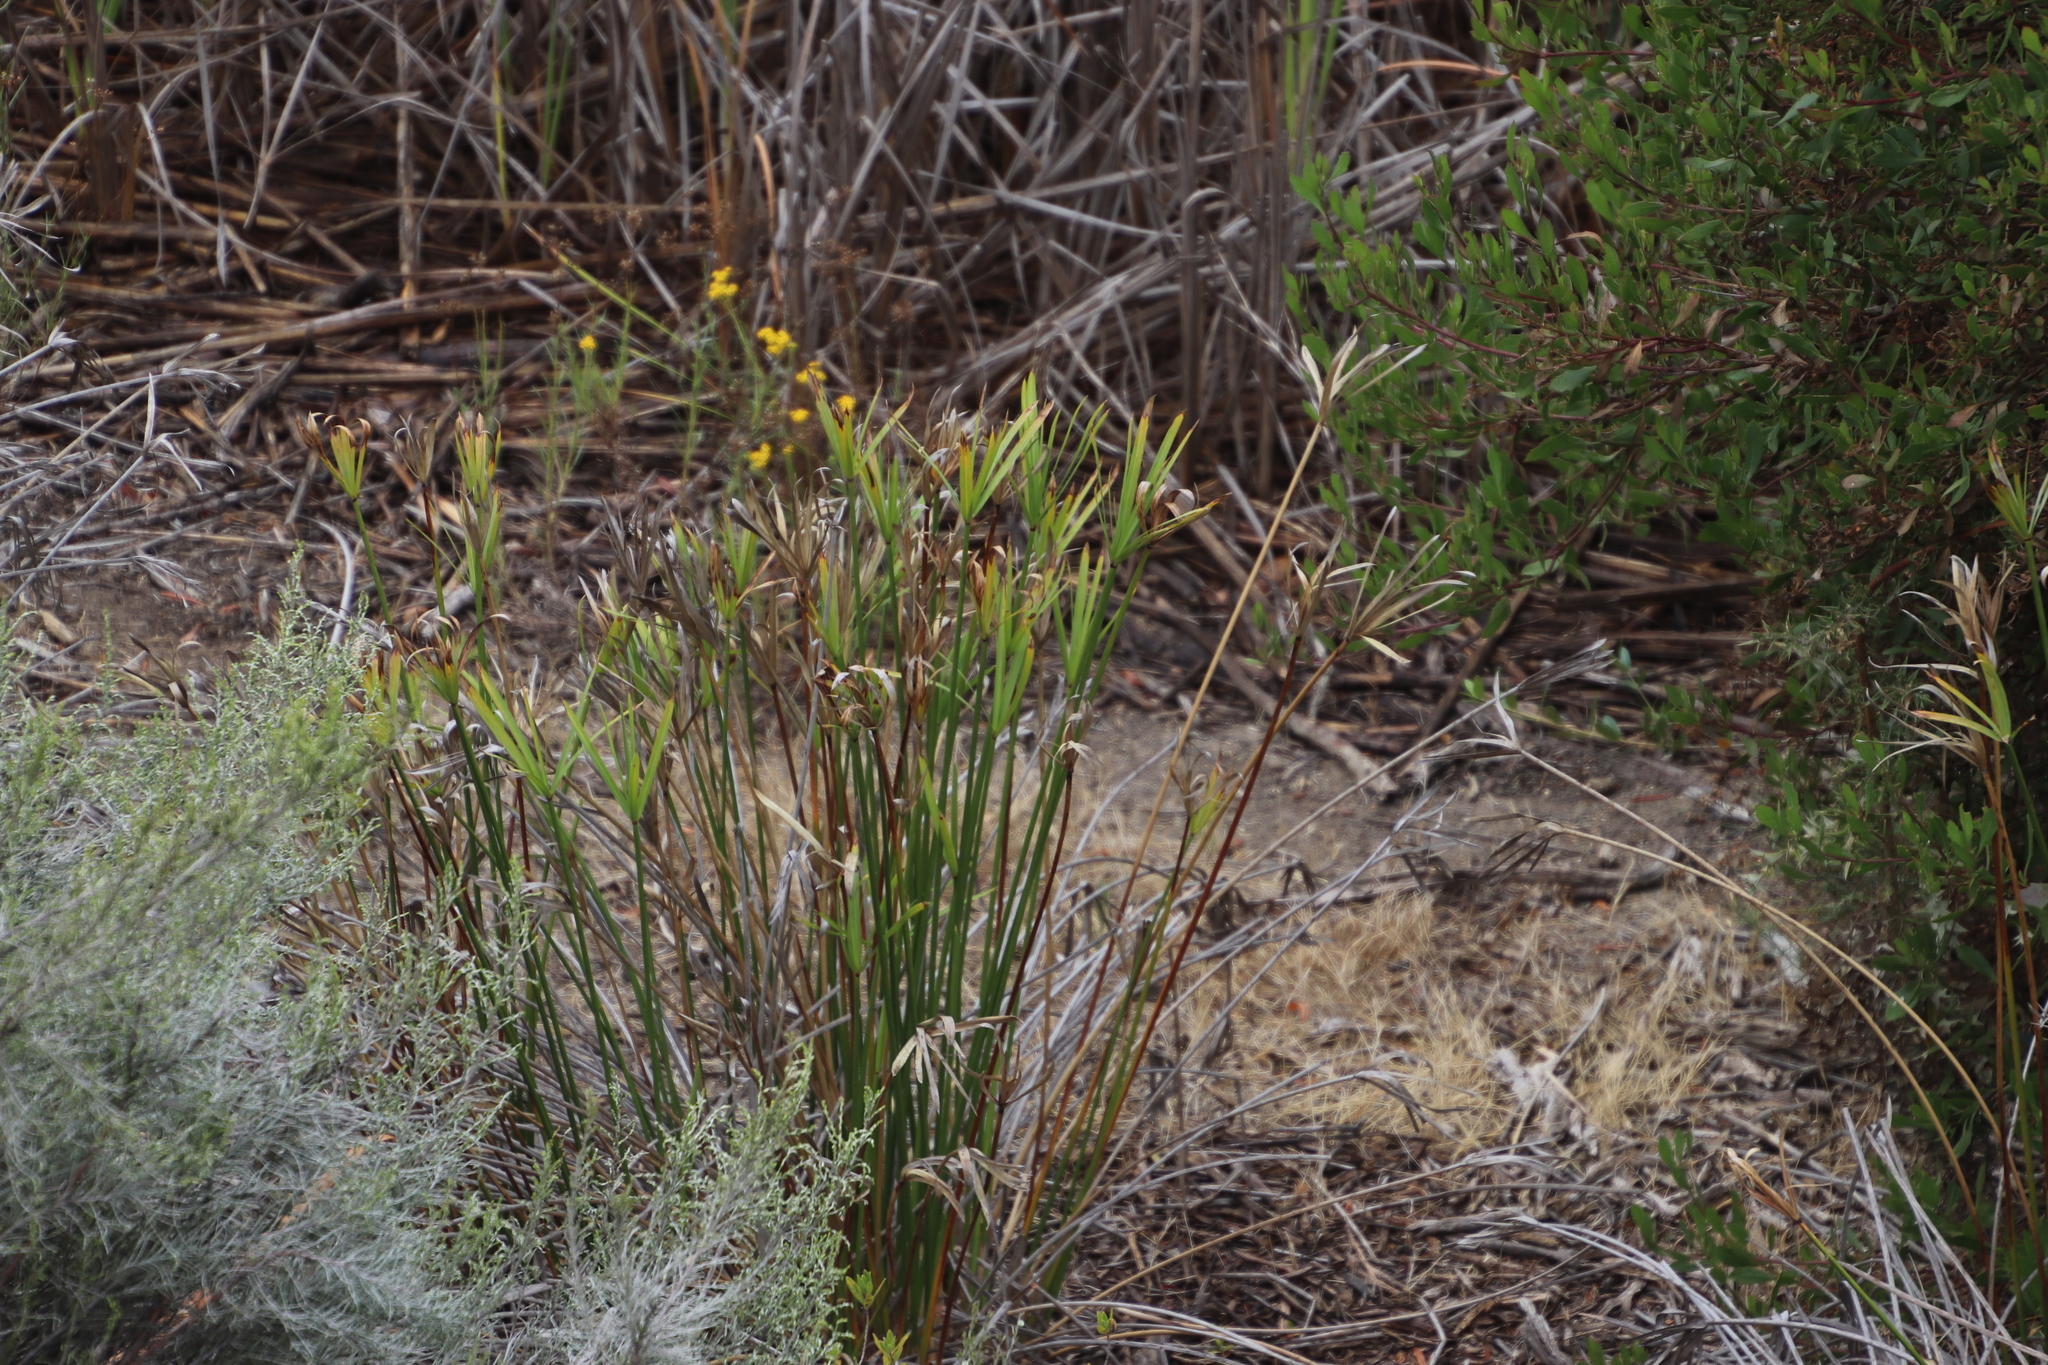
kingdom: Plantae
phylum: Tracheophyta
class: Liliopsida
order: Poales
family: Cyperaceae
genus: Cyperus
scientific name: Cyperus textilis
